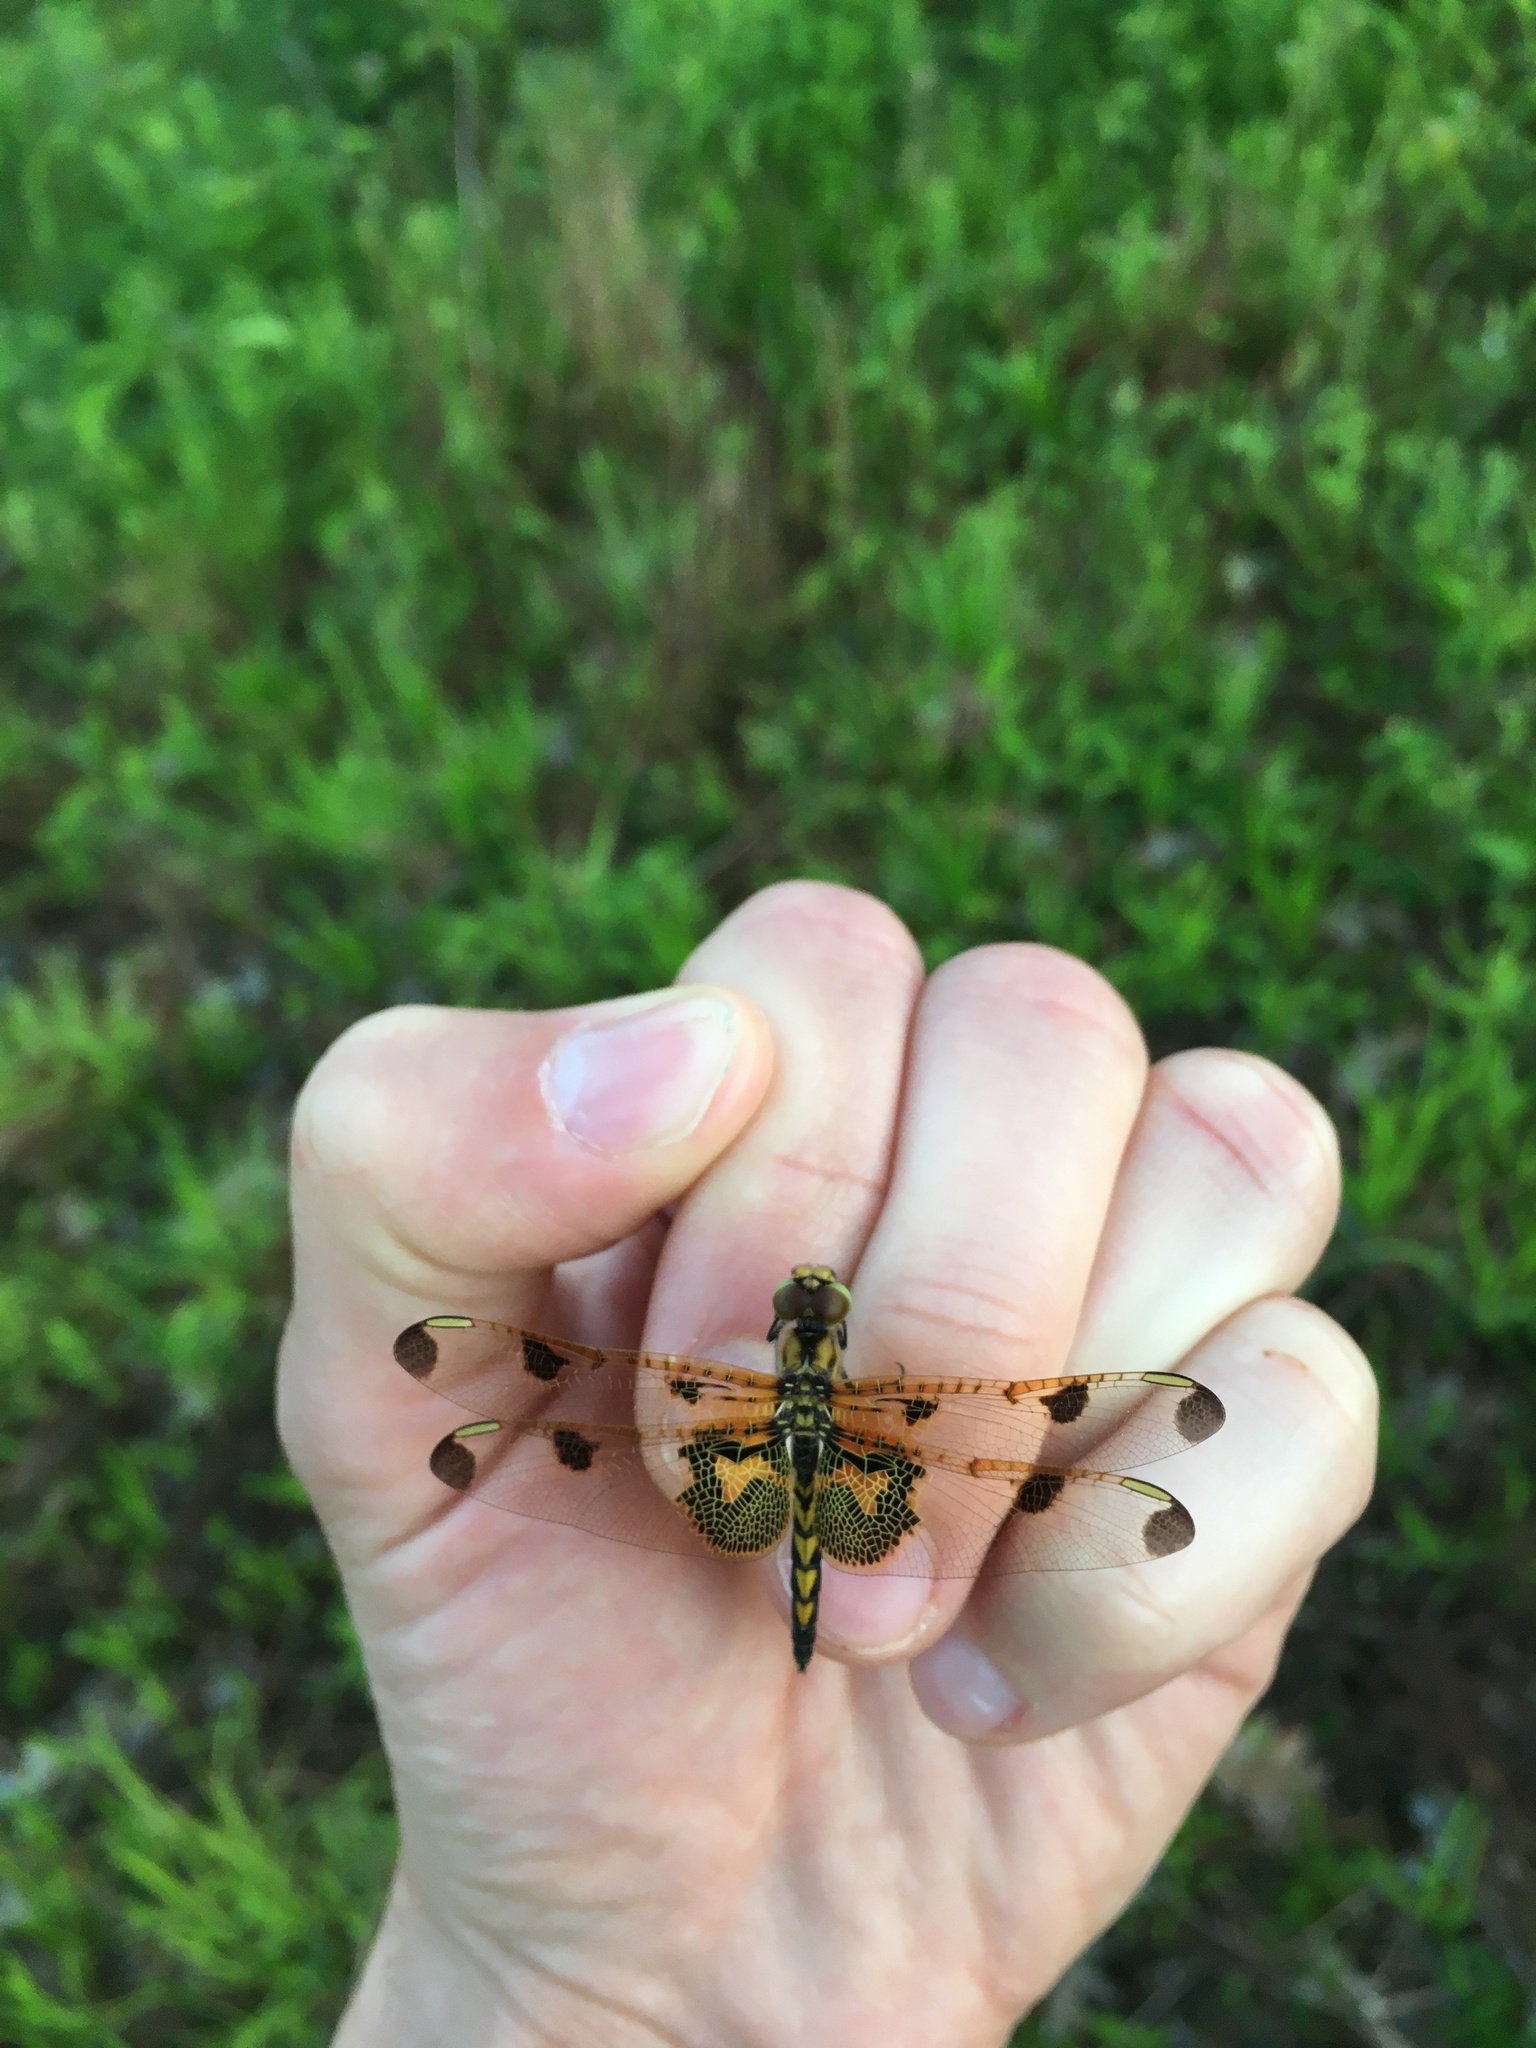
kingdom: Animalia
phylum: Arthropoda
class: Insecta
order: Odonata
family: Libellulidae
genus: Celithemis
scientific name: Celithemis elisa
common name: Calico pennant
